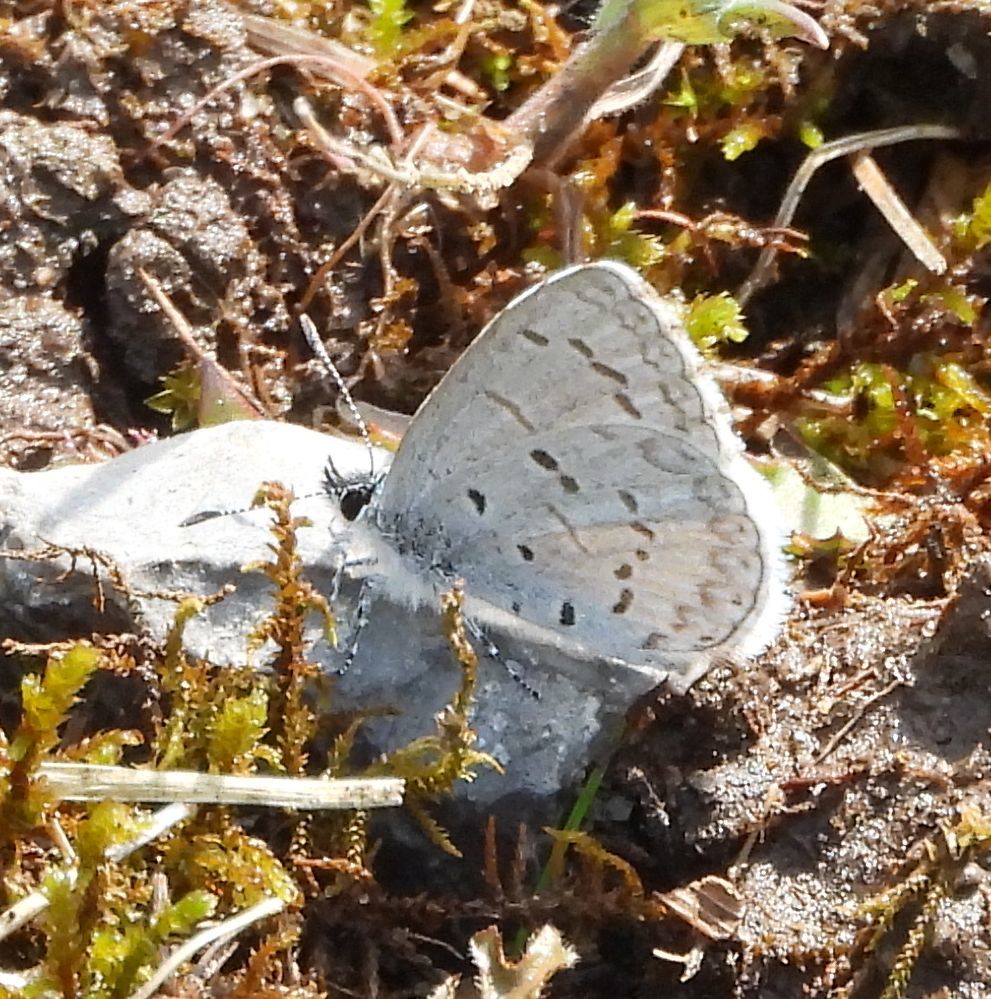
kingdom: Animalia
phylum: Arthropoda
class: Insecta
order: Lepidoptera
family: Lycaenidae
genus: Celastrina
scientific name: Celastrina lucia
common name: Lucia azure
